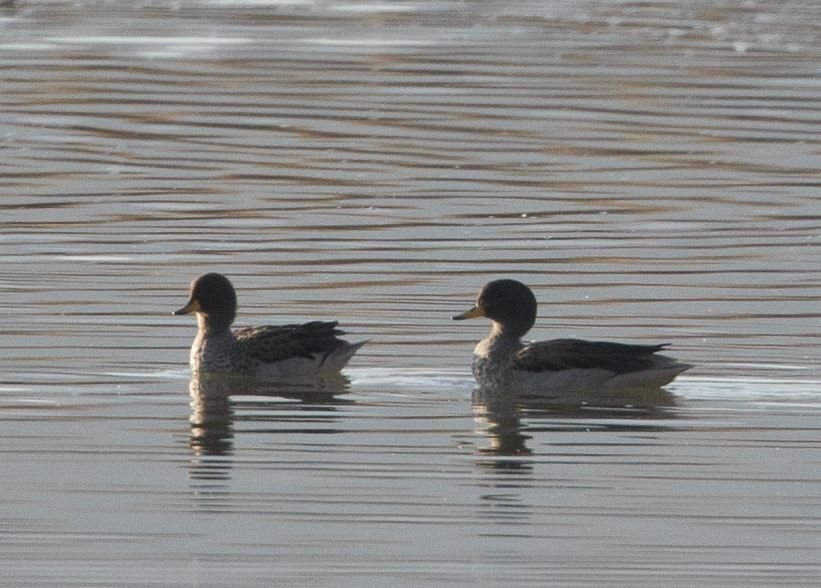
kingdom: Animalia
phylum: Chordata
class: Aves
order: Anseriformes
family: Anatidae
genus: Anas
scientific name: Anas flavirostris
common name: Yellow-billed teal
